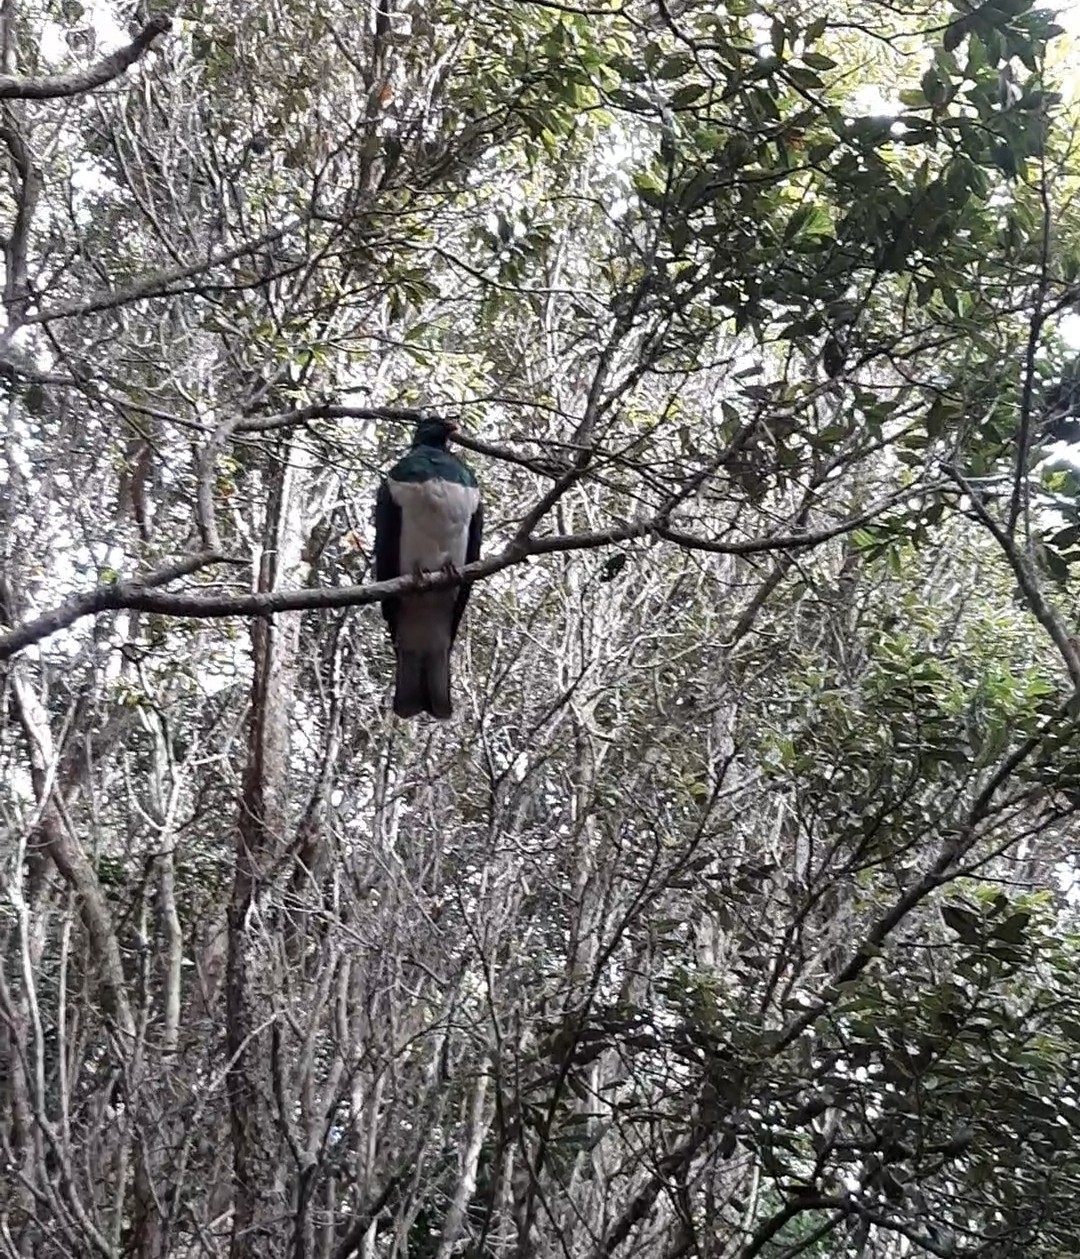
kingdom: Animalia
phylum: Chordata
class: Aves
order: Columbiformes
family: Columbidae
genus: Hemiphaga
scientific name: Hemiphaga novaeseelandiae
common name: New zealand pigeon
